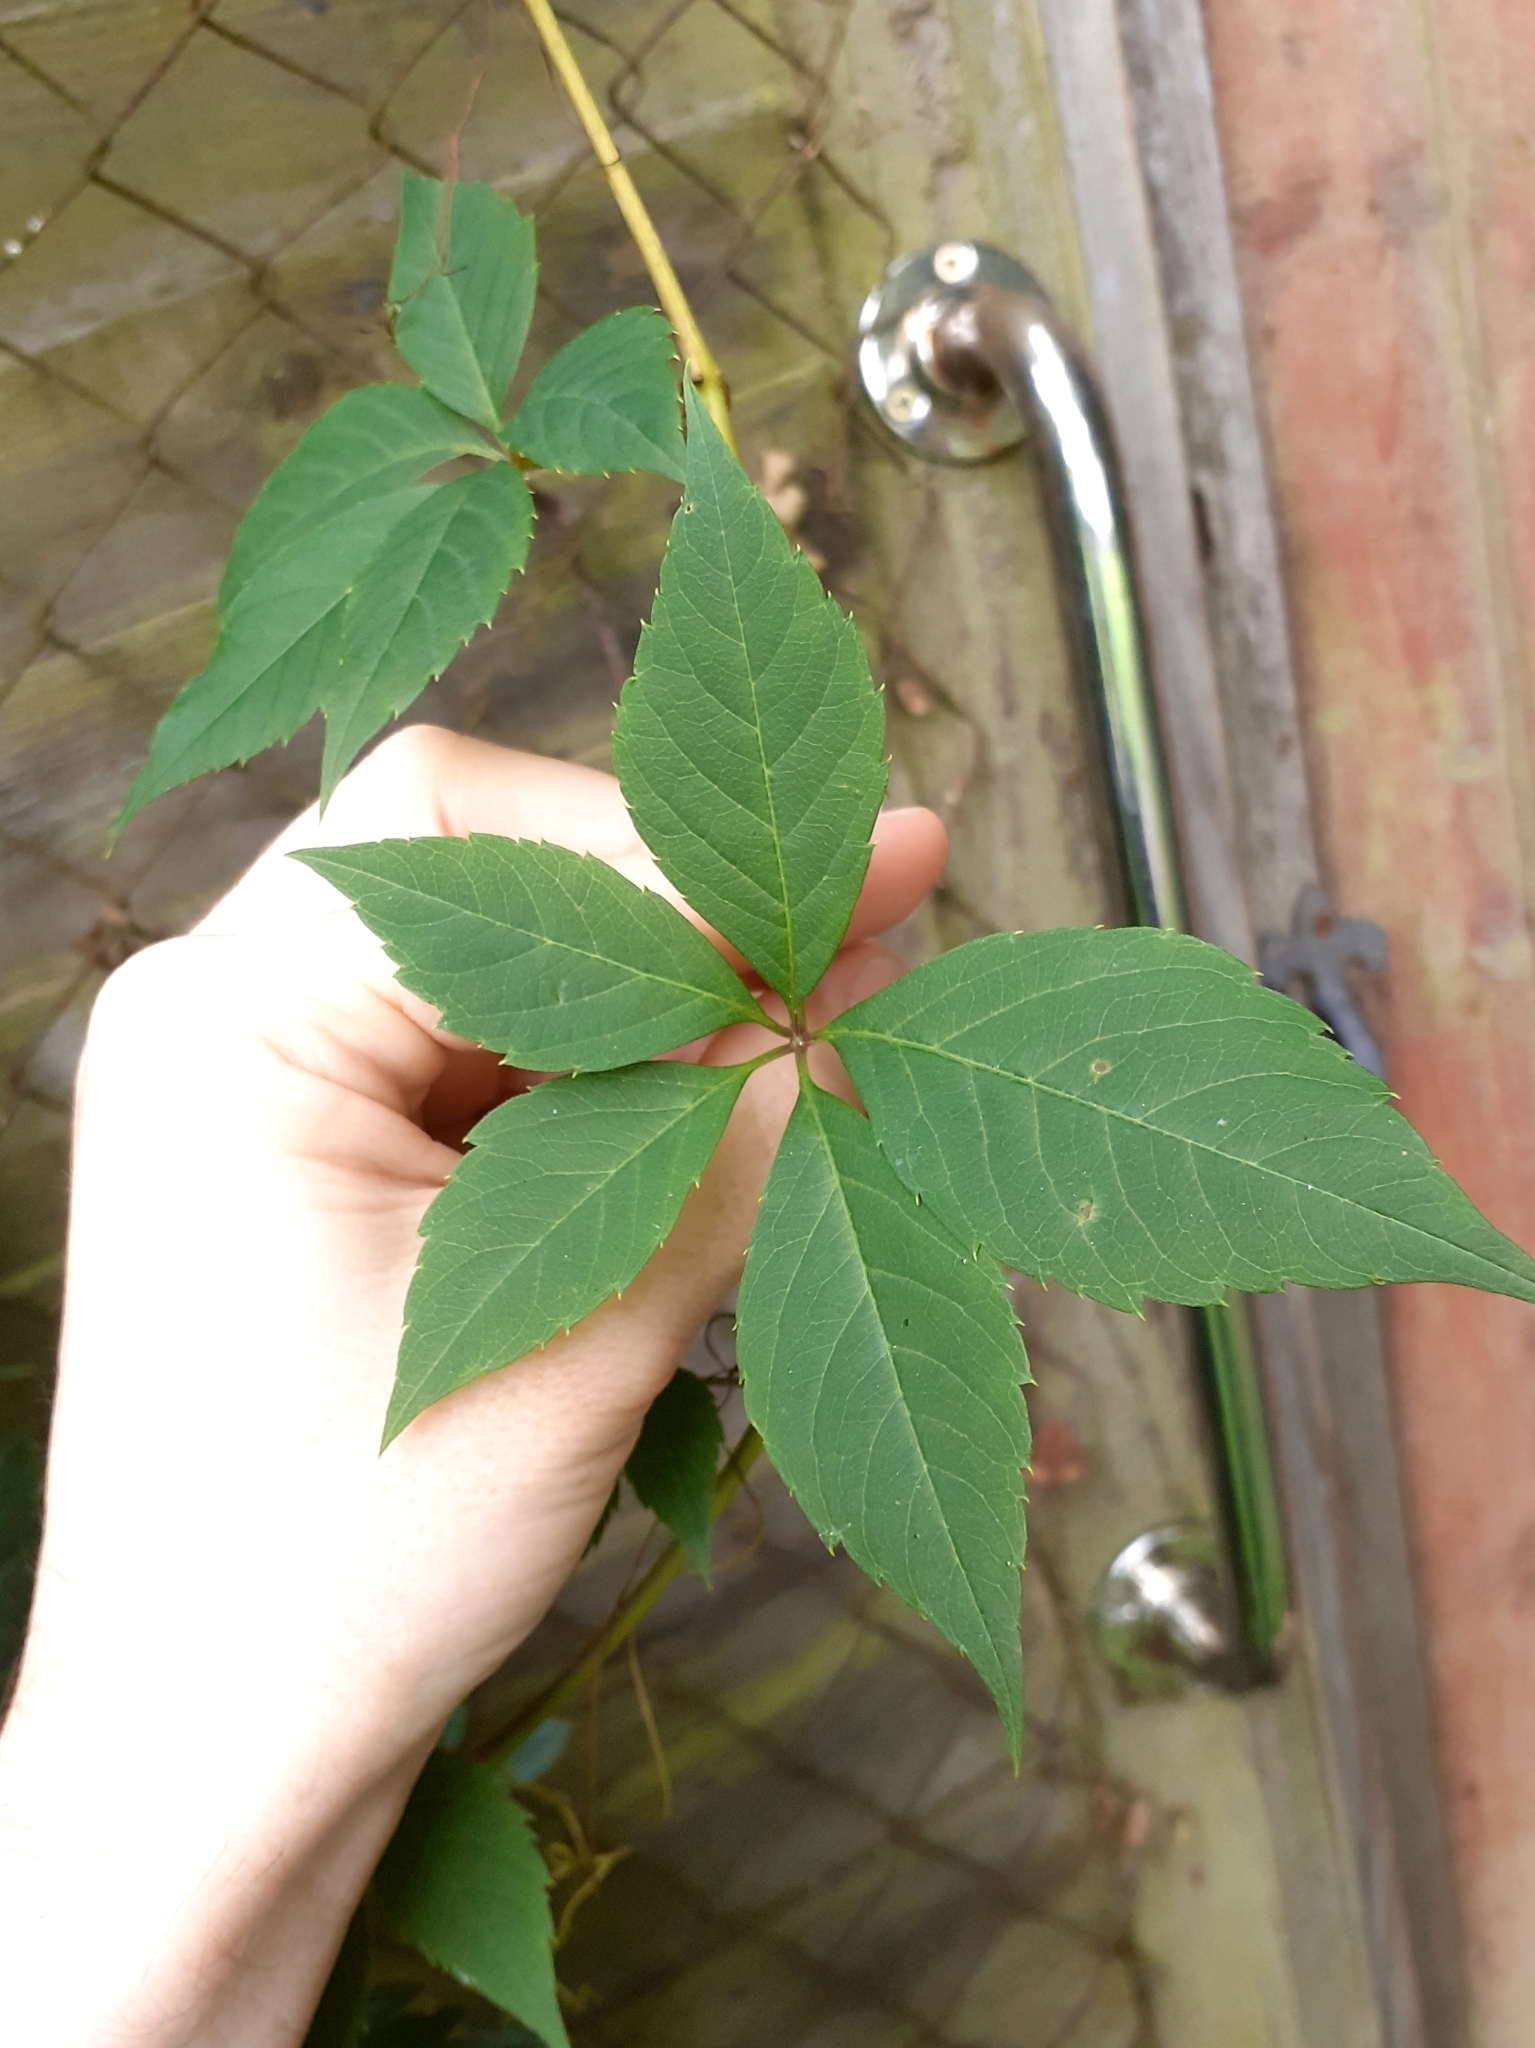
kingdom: Plantae
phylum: Tracheophyta
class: Magnoliopsida
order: Vitales
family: Vitaceae
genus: Parthenocissus
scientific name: Parthenocissus quinquefolia
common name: Virginia-creeper
